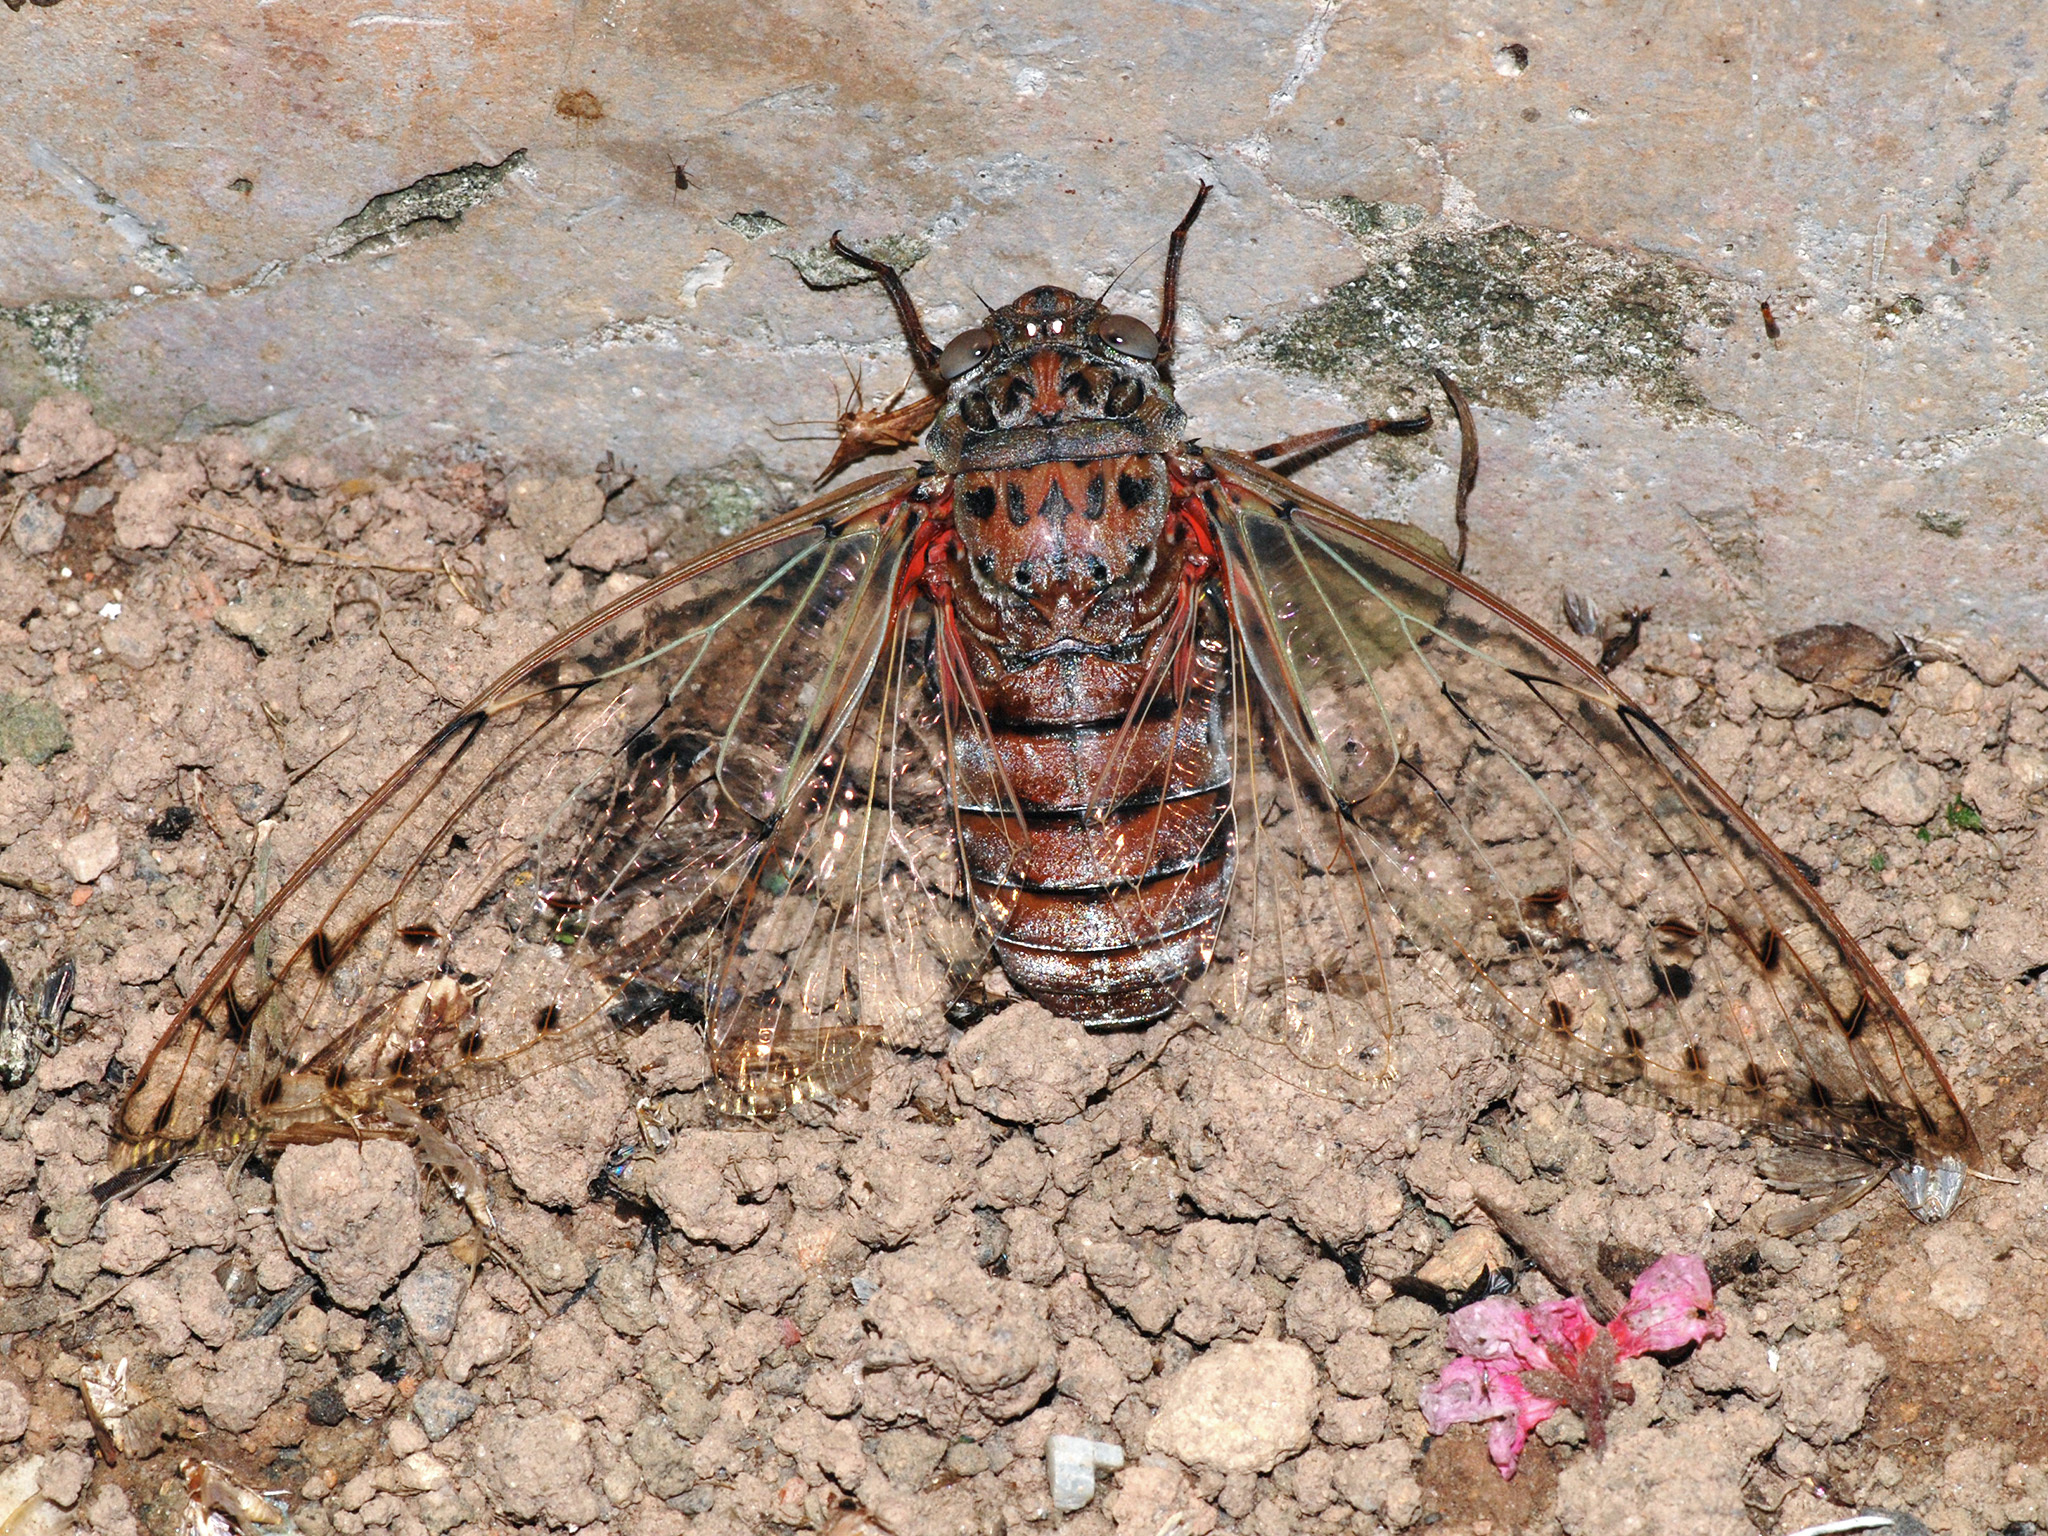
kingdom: Animalia
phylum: Arthropoda
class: Insecta
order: Hemiptera
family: Cicadidae
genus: Megapomponia
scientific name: Megapomponia imperatoria
